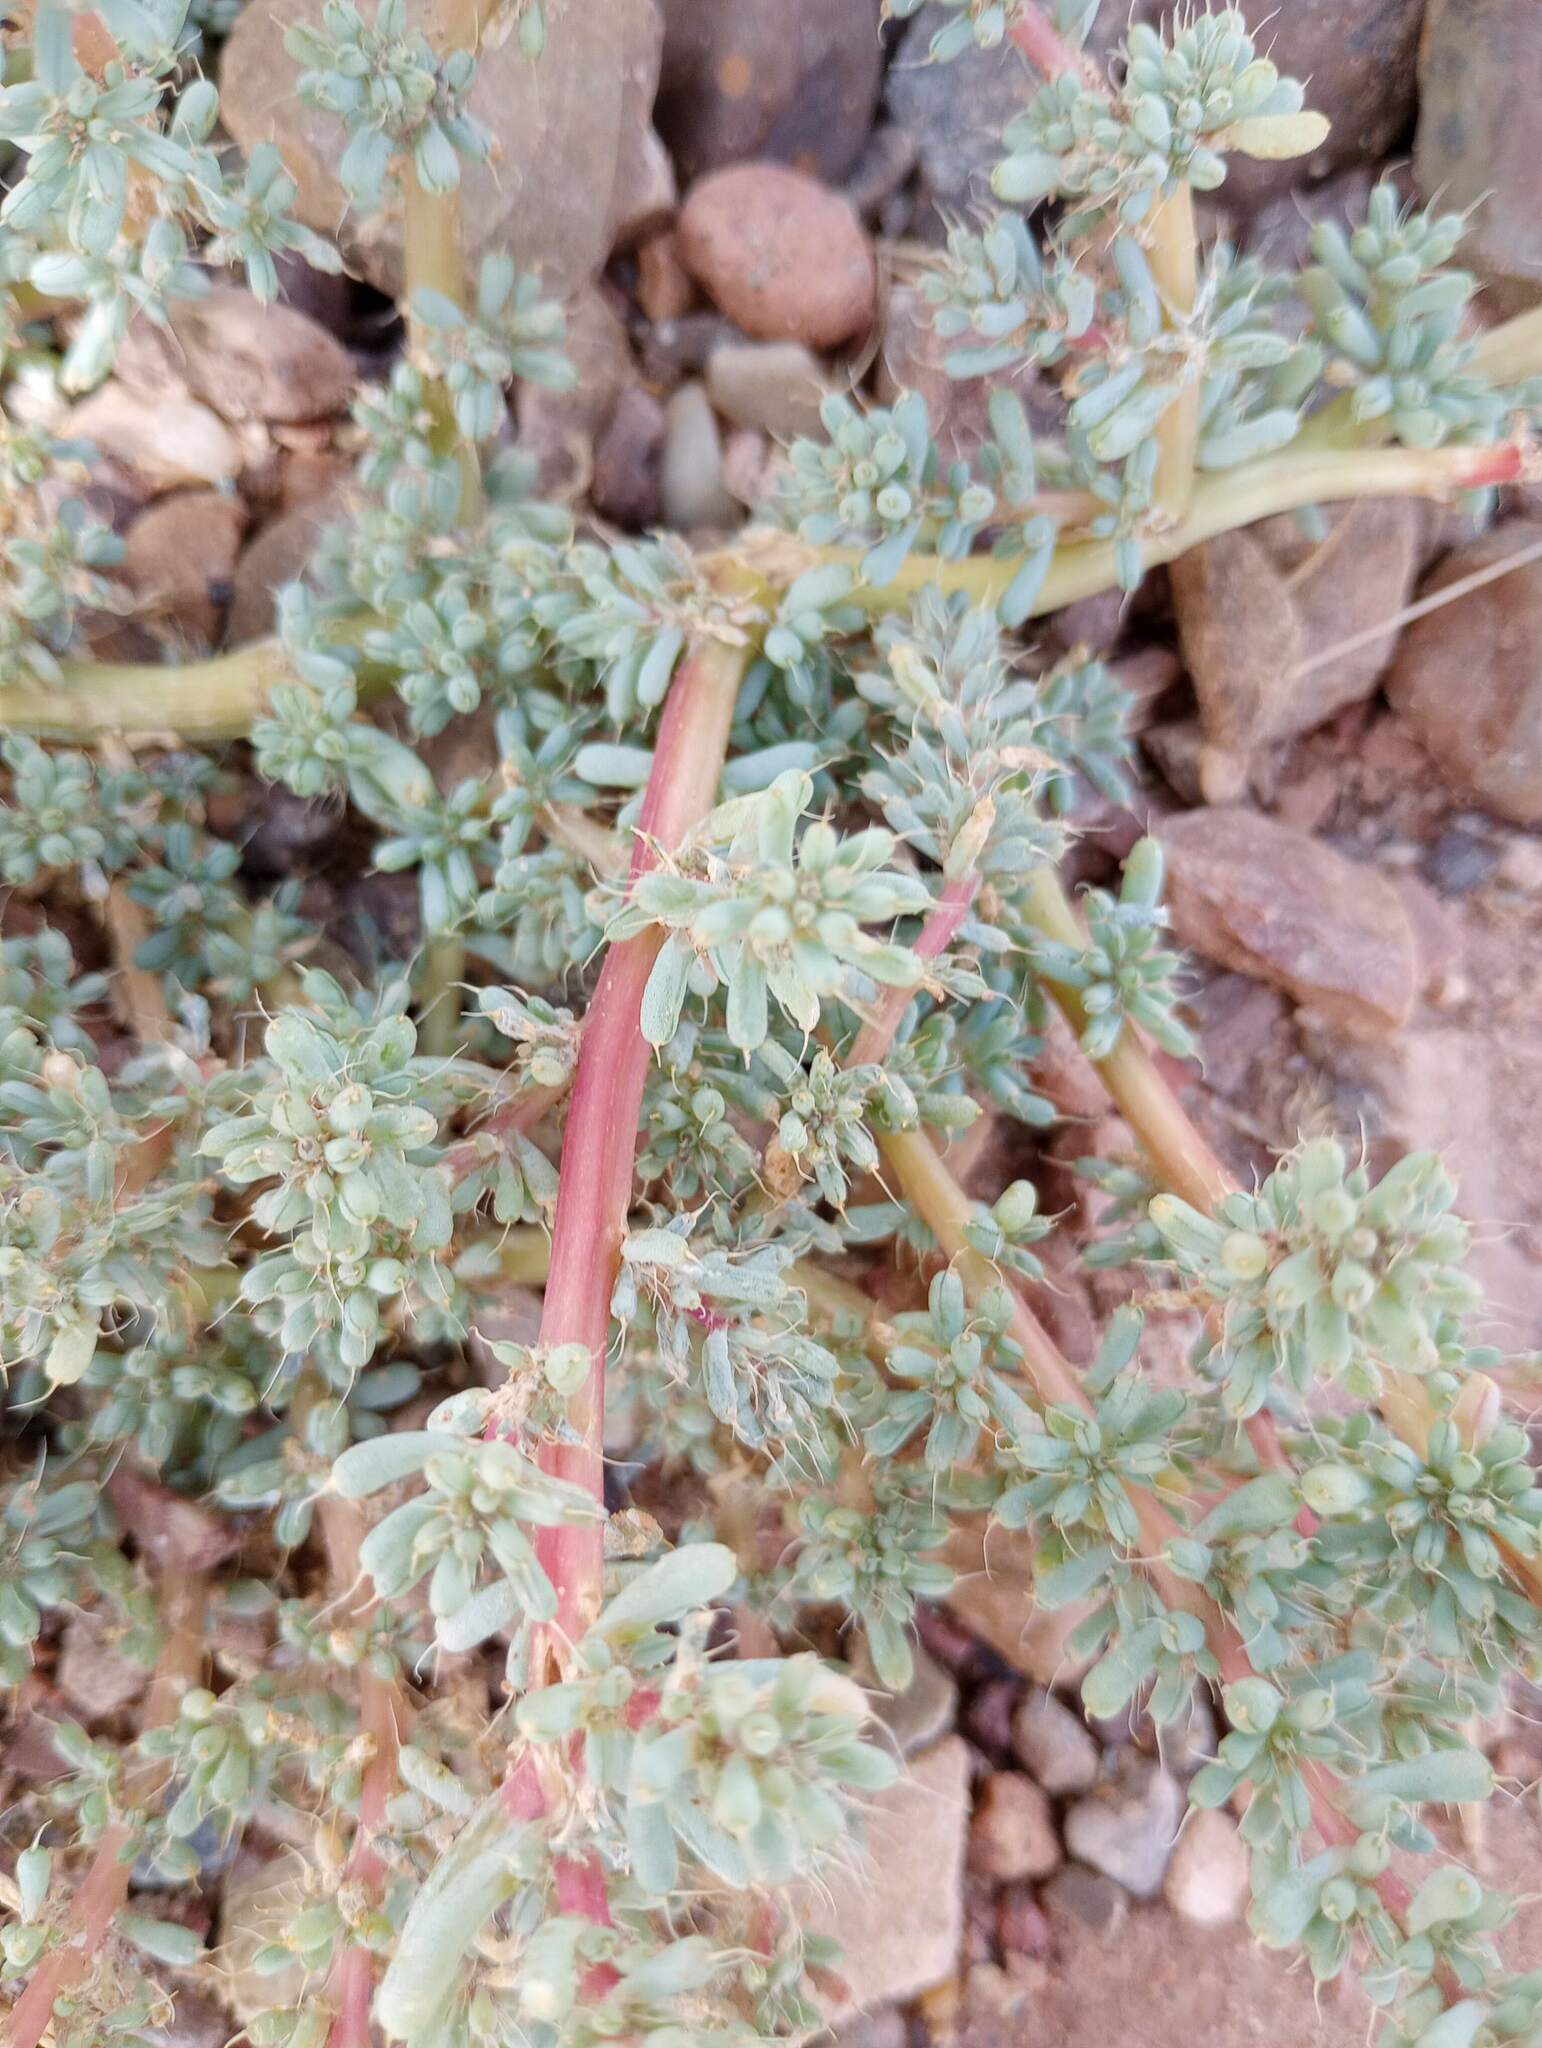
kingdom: Plantae
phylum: Tracheophyta
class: Magnoliopsida
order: Caryophyllales
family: Amaranthaceae
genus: Halogeton
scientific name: Halogeton glomeratus
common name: Saltlover
